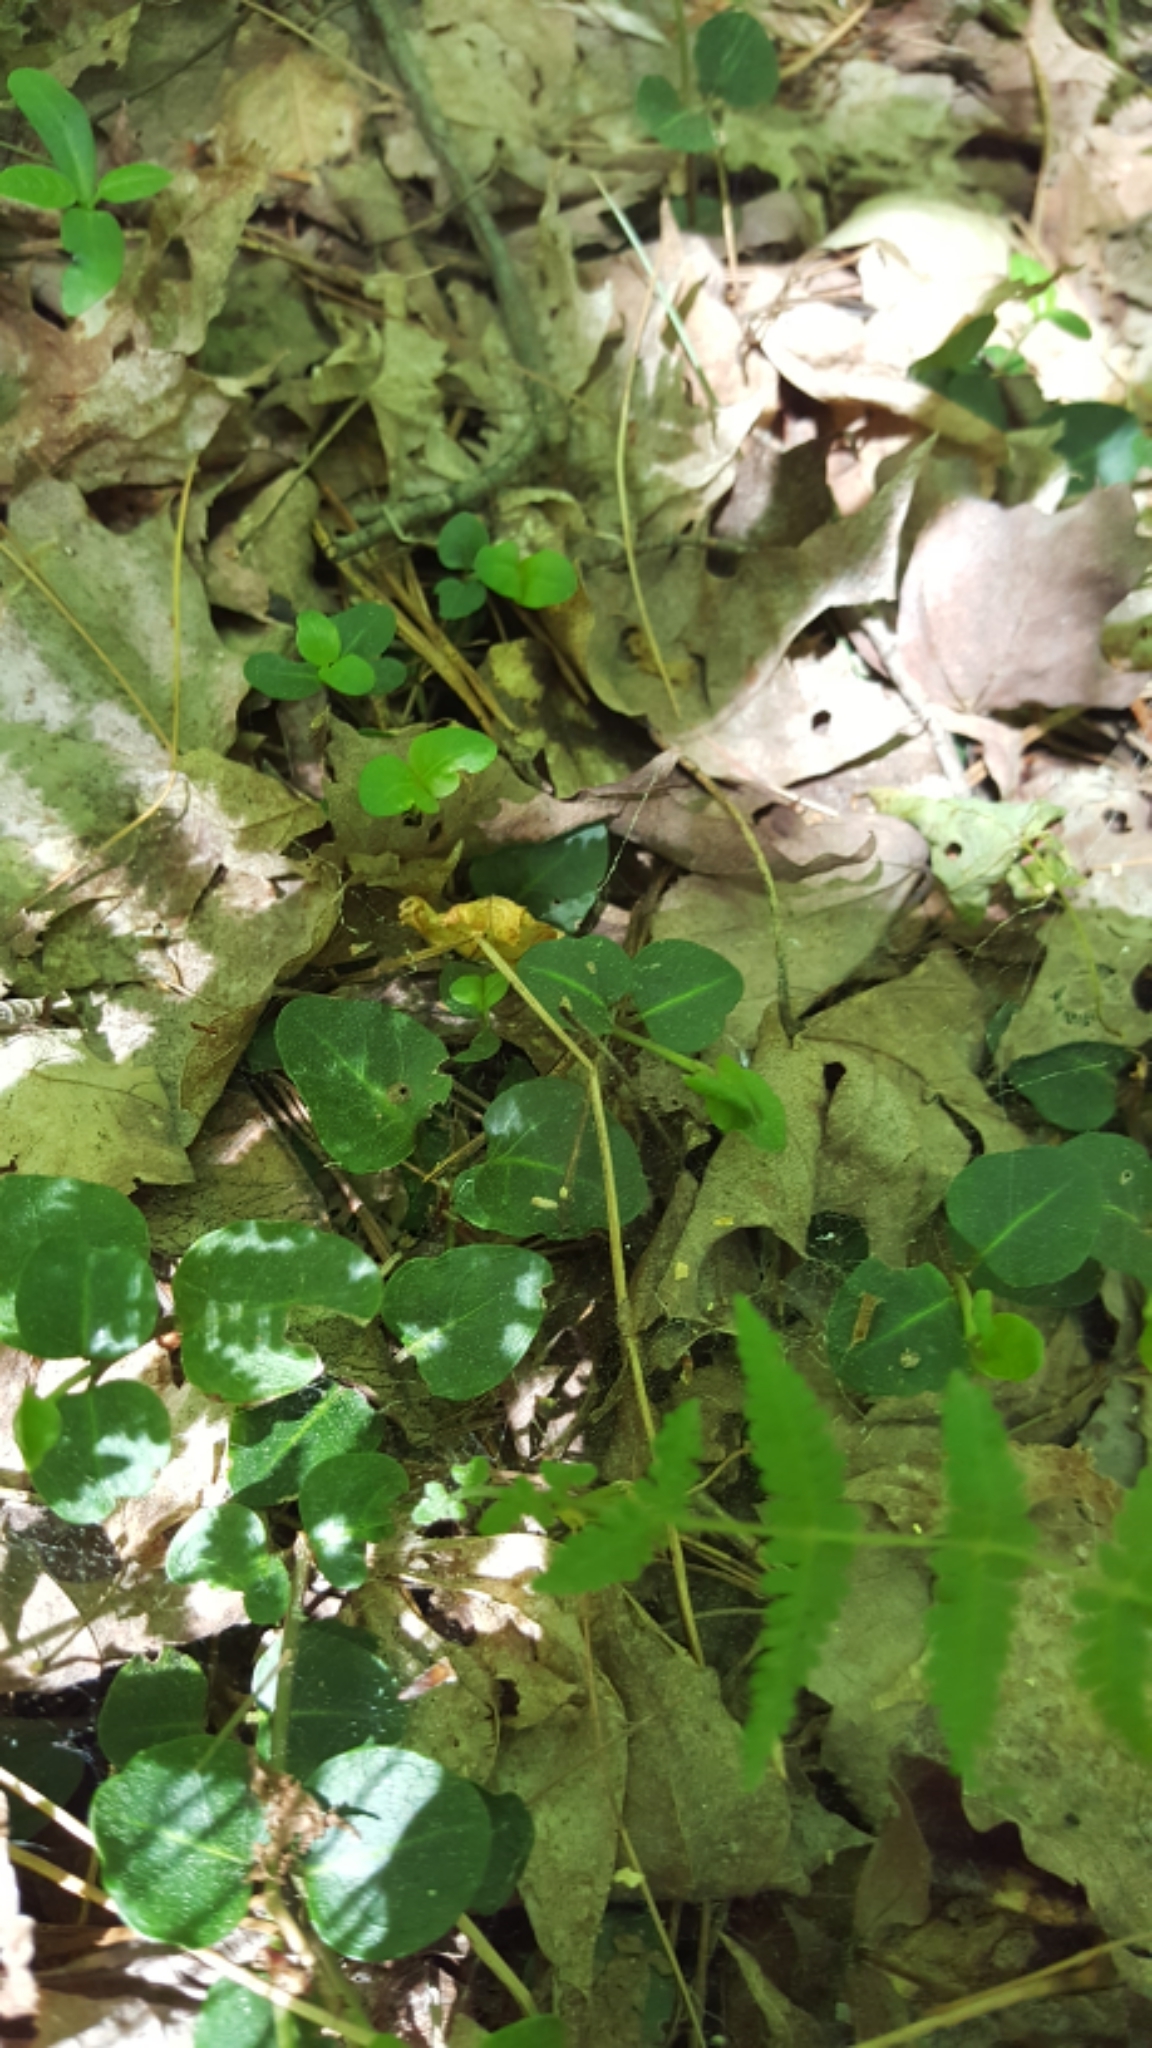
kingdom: Plantae
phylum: Tracheophyta
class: Magnoliopsida
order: Gentianales
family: Rubiaceae
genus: Mitchella
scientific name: Mitchella repens
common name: Partridge-berry
